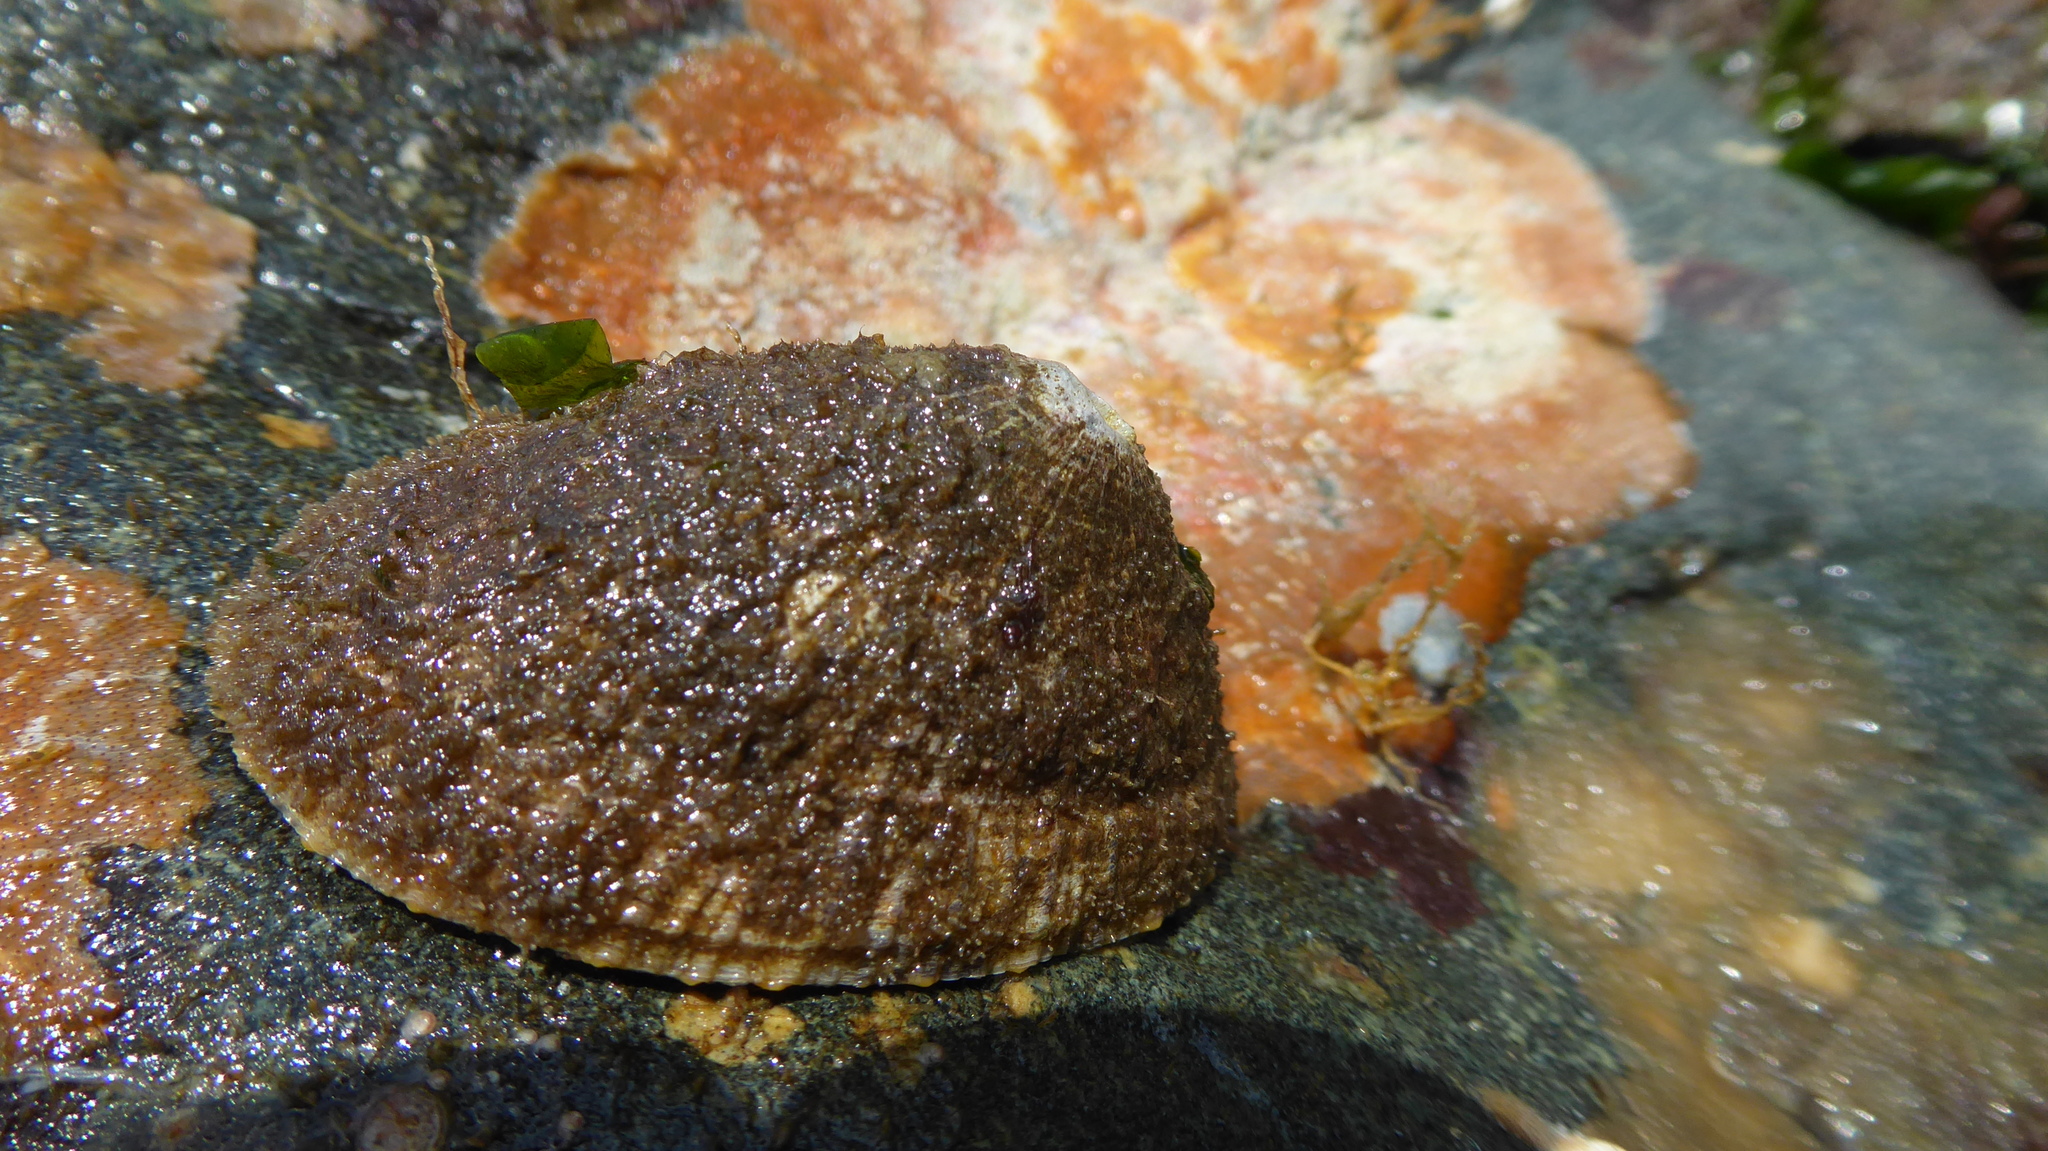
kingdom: Animalia
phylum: Mollusca
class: Gastropoda
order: Lepetellida
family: Fissurellidae
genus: Diodora
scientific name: Diodora aspera
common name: Rough keyhole limpet
